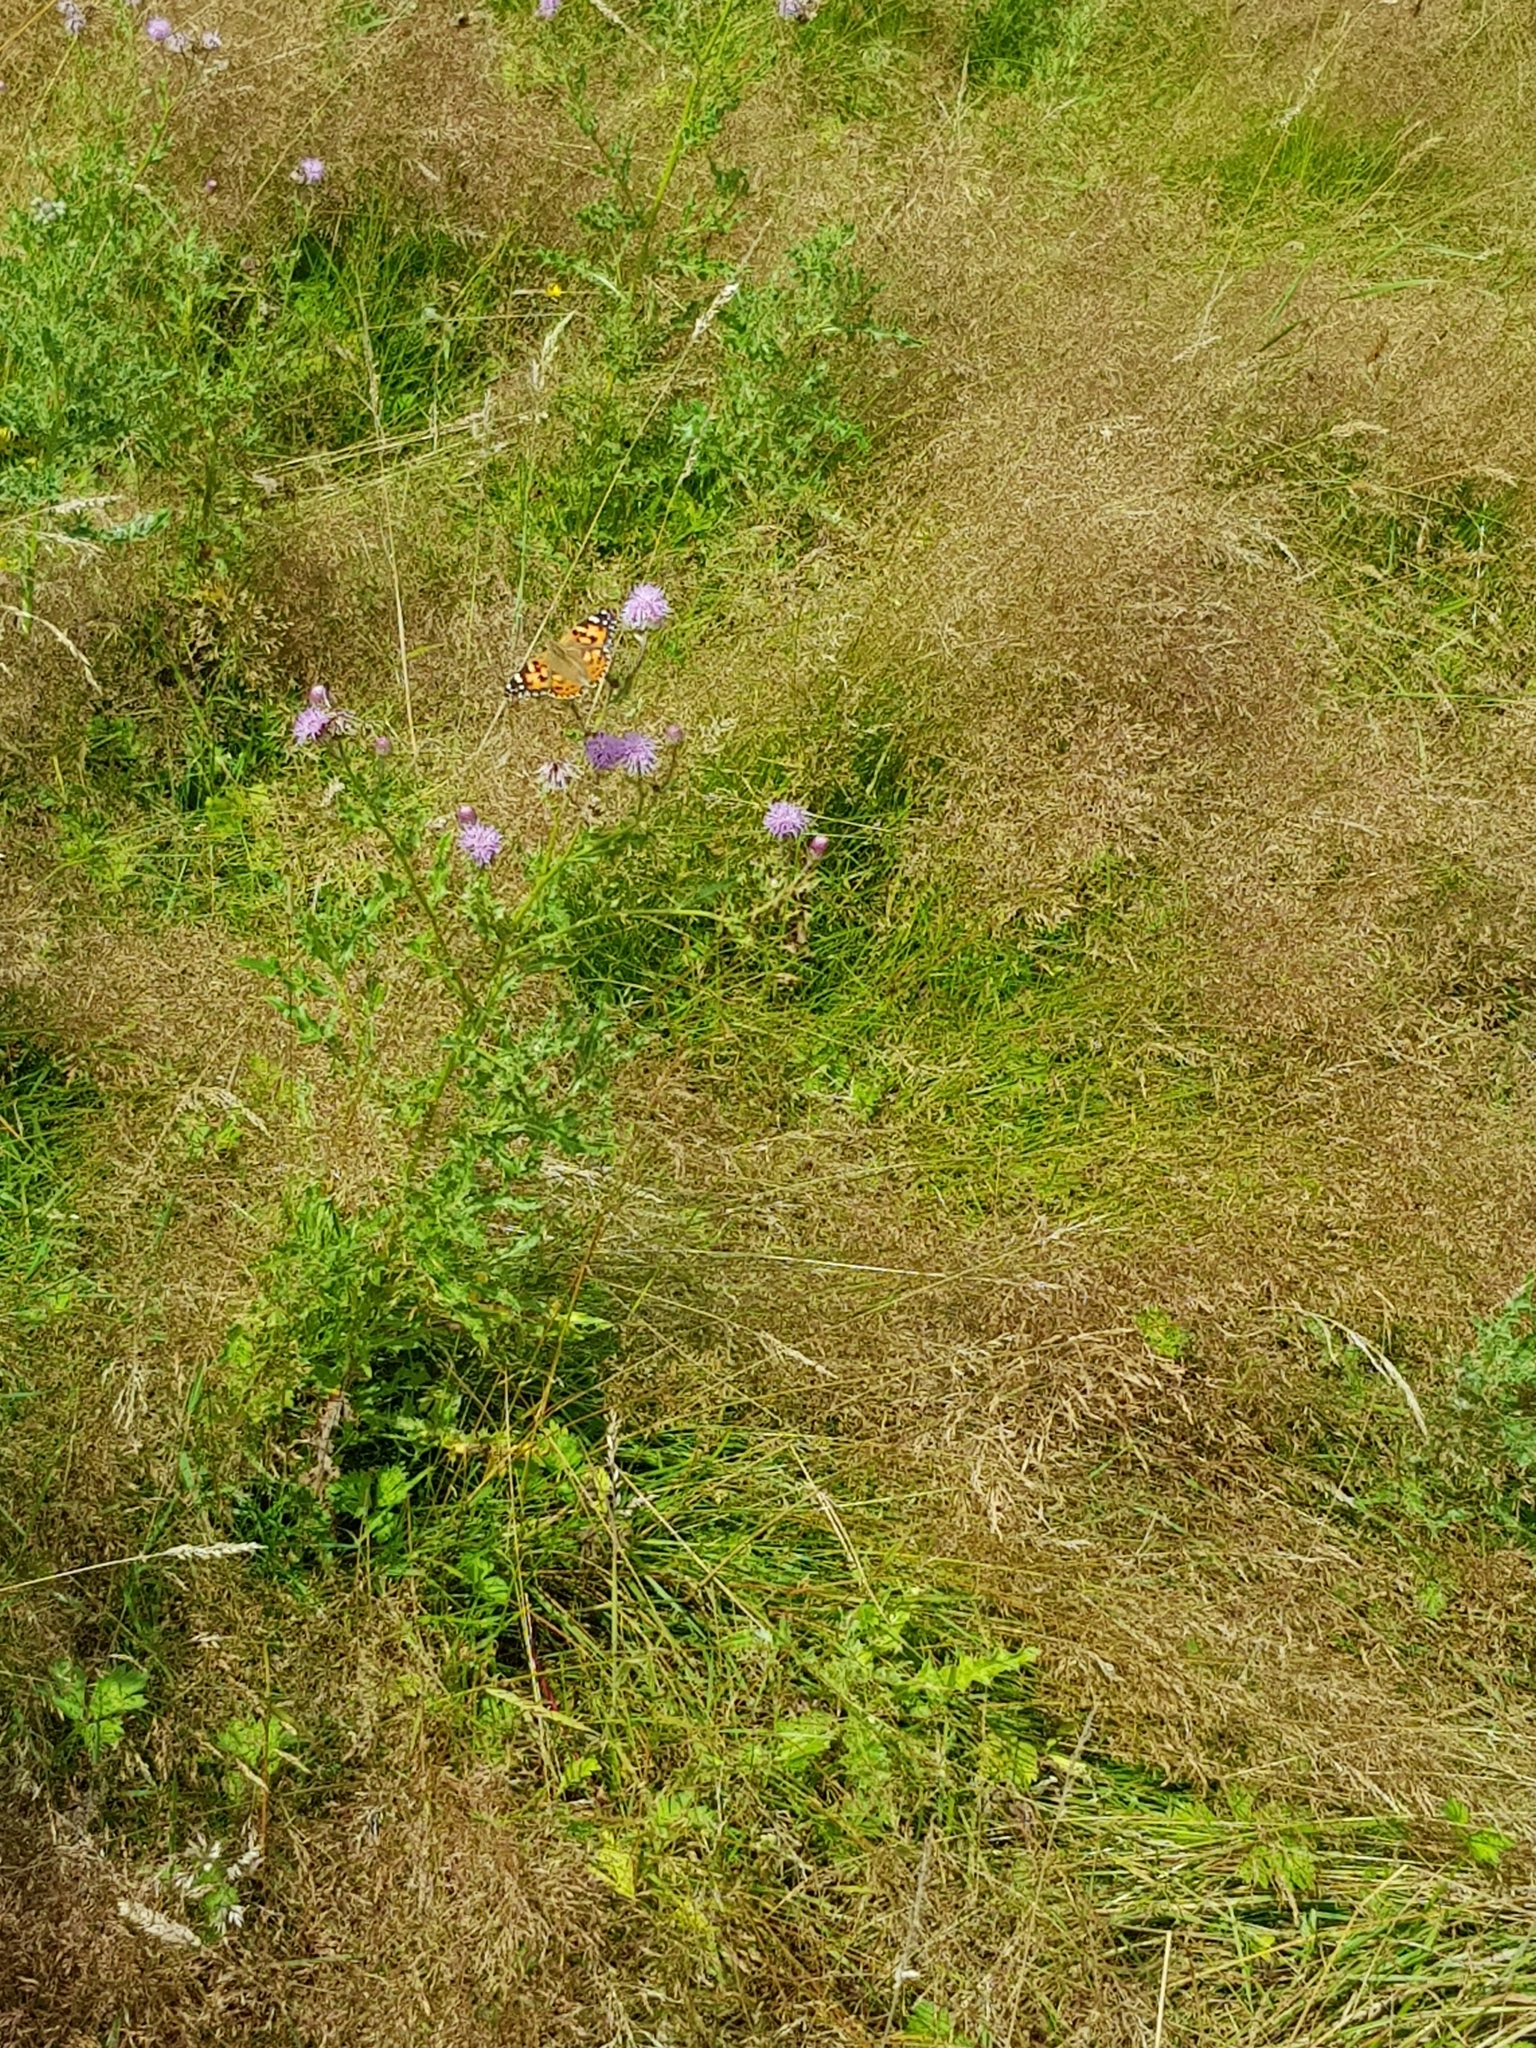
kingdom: Animalia
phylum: Arthropoda
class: Insecta
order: Lepidoptera
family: Nymphalidae
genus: Vanessa
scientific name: Vanessa cardui
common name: Painted lady
